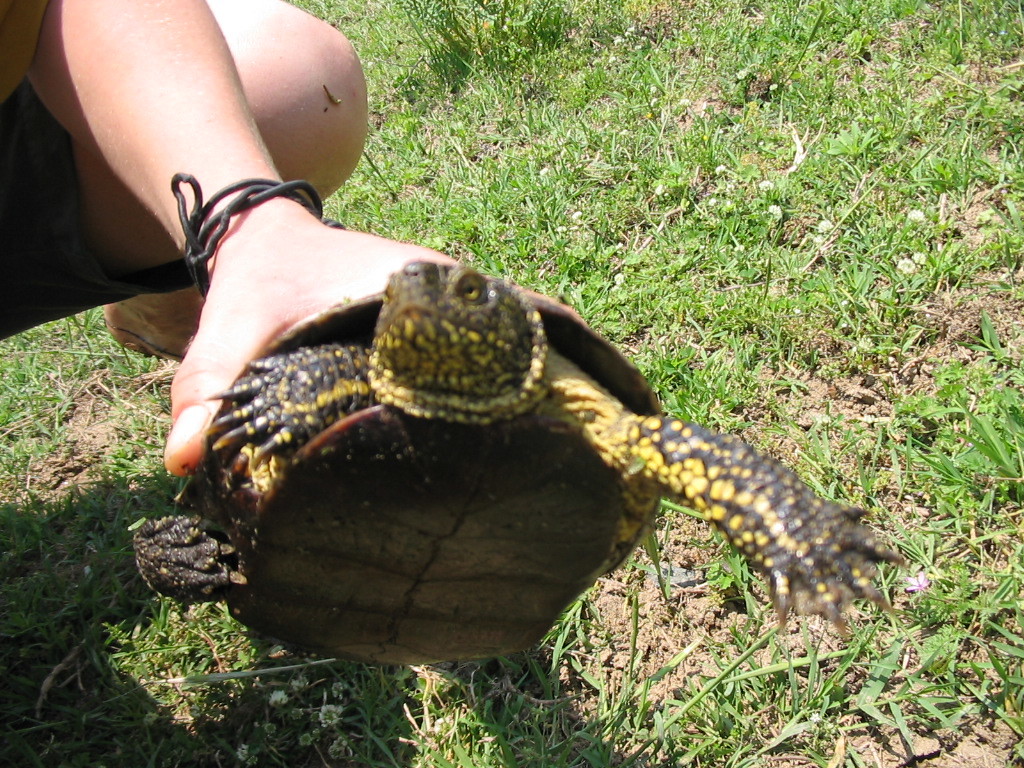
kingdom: Animalia
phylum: Chordata
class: Testudines
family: Emydidae
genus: Emys
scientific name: Emys orbicularis
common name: European pond turtle
